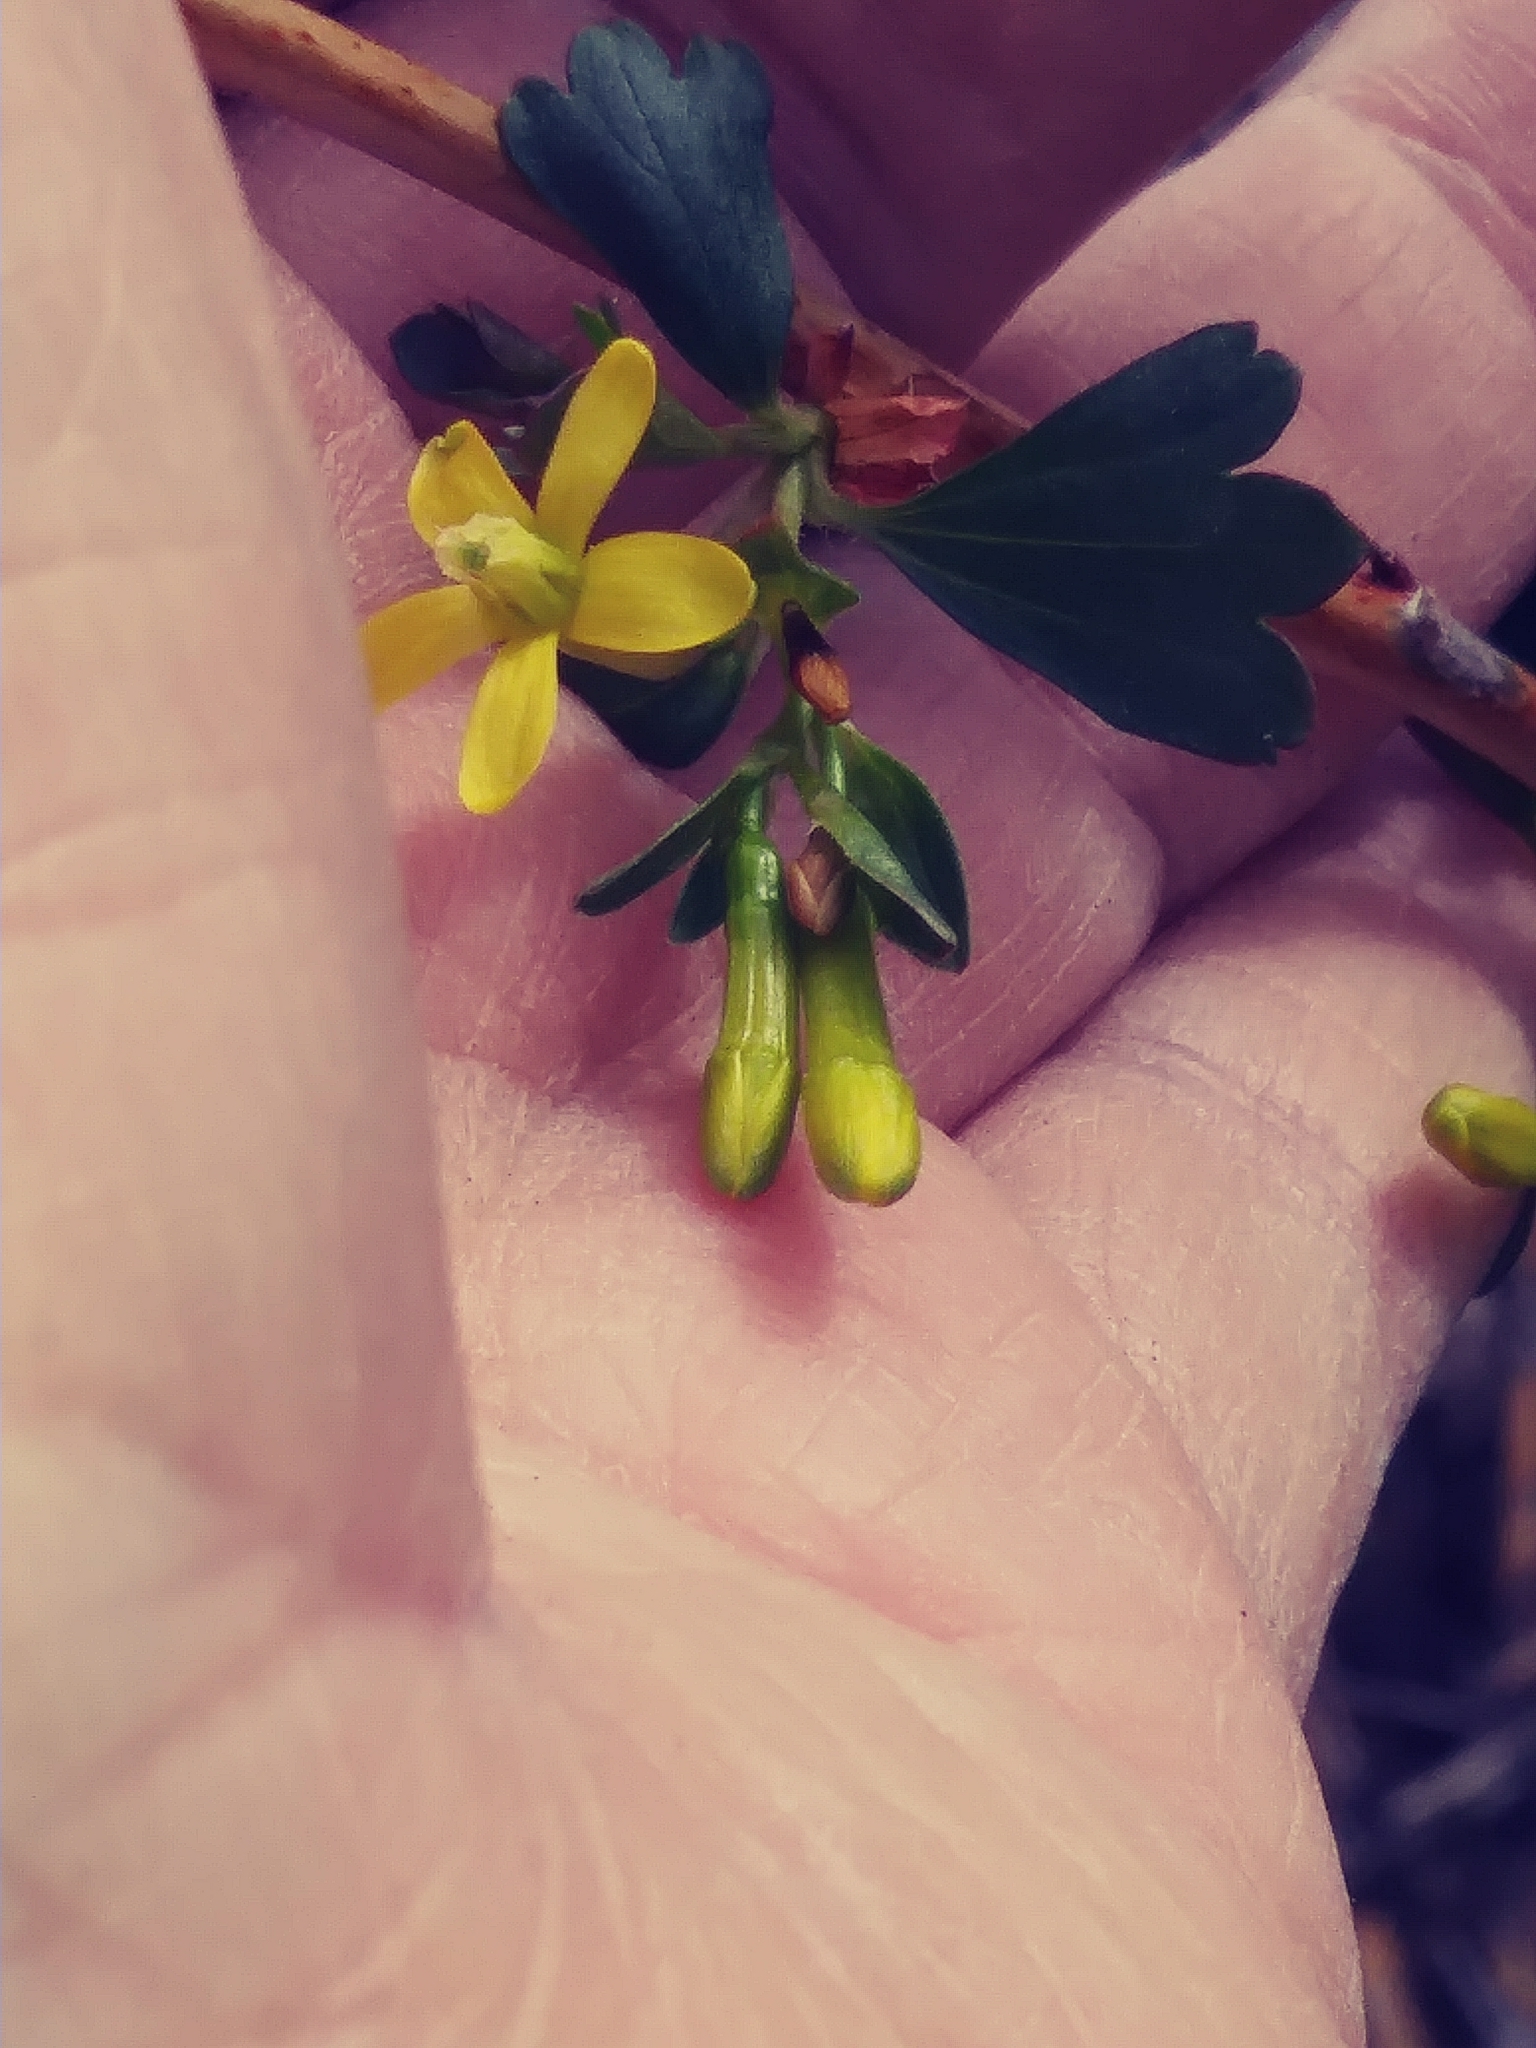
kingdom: Plantae
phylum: Tracheophyta
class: Magnoliopsida
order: Saxifragales
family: Grossulariaceae
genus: Ribes
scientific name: Ribes aureum
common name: Golden currant
